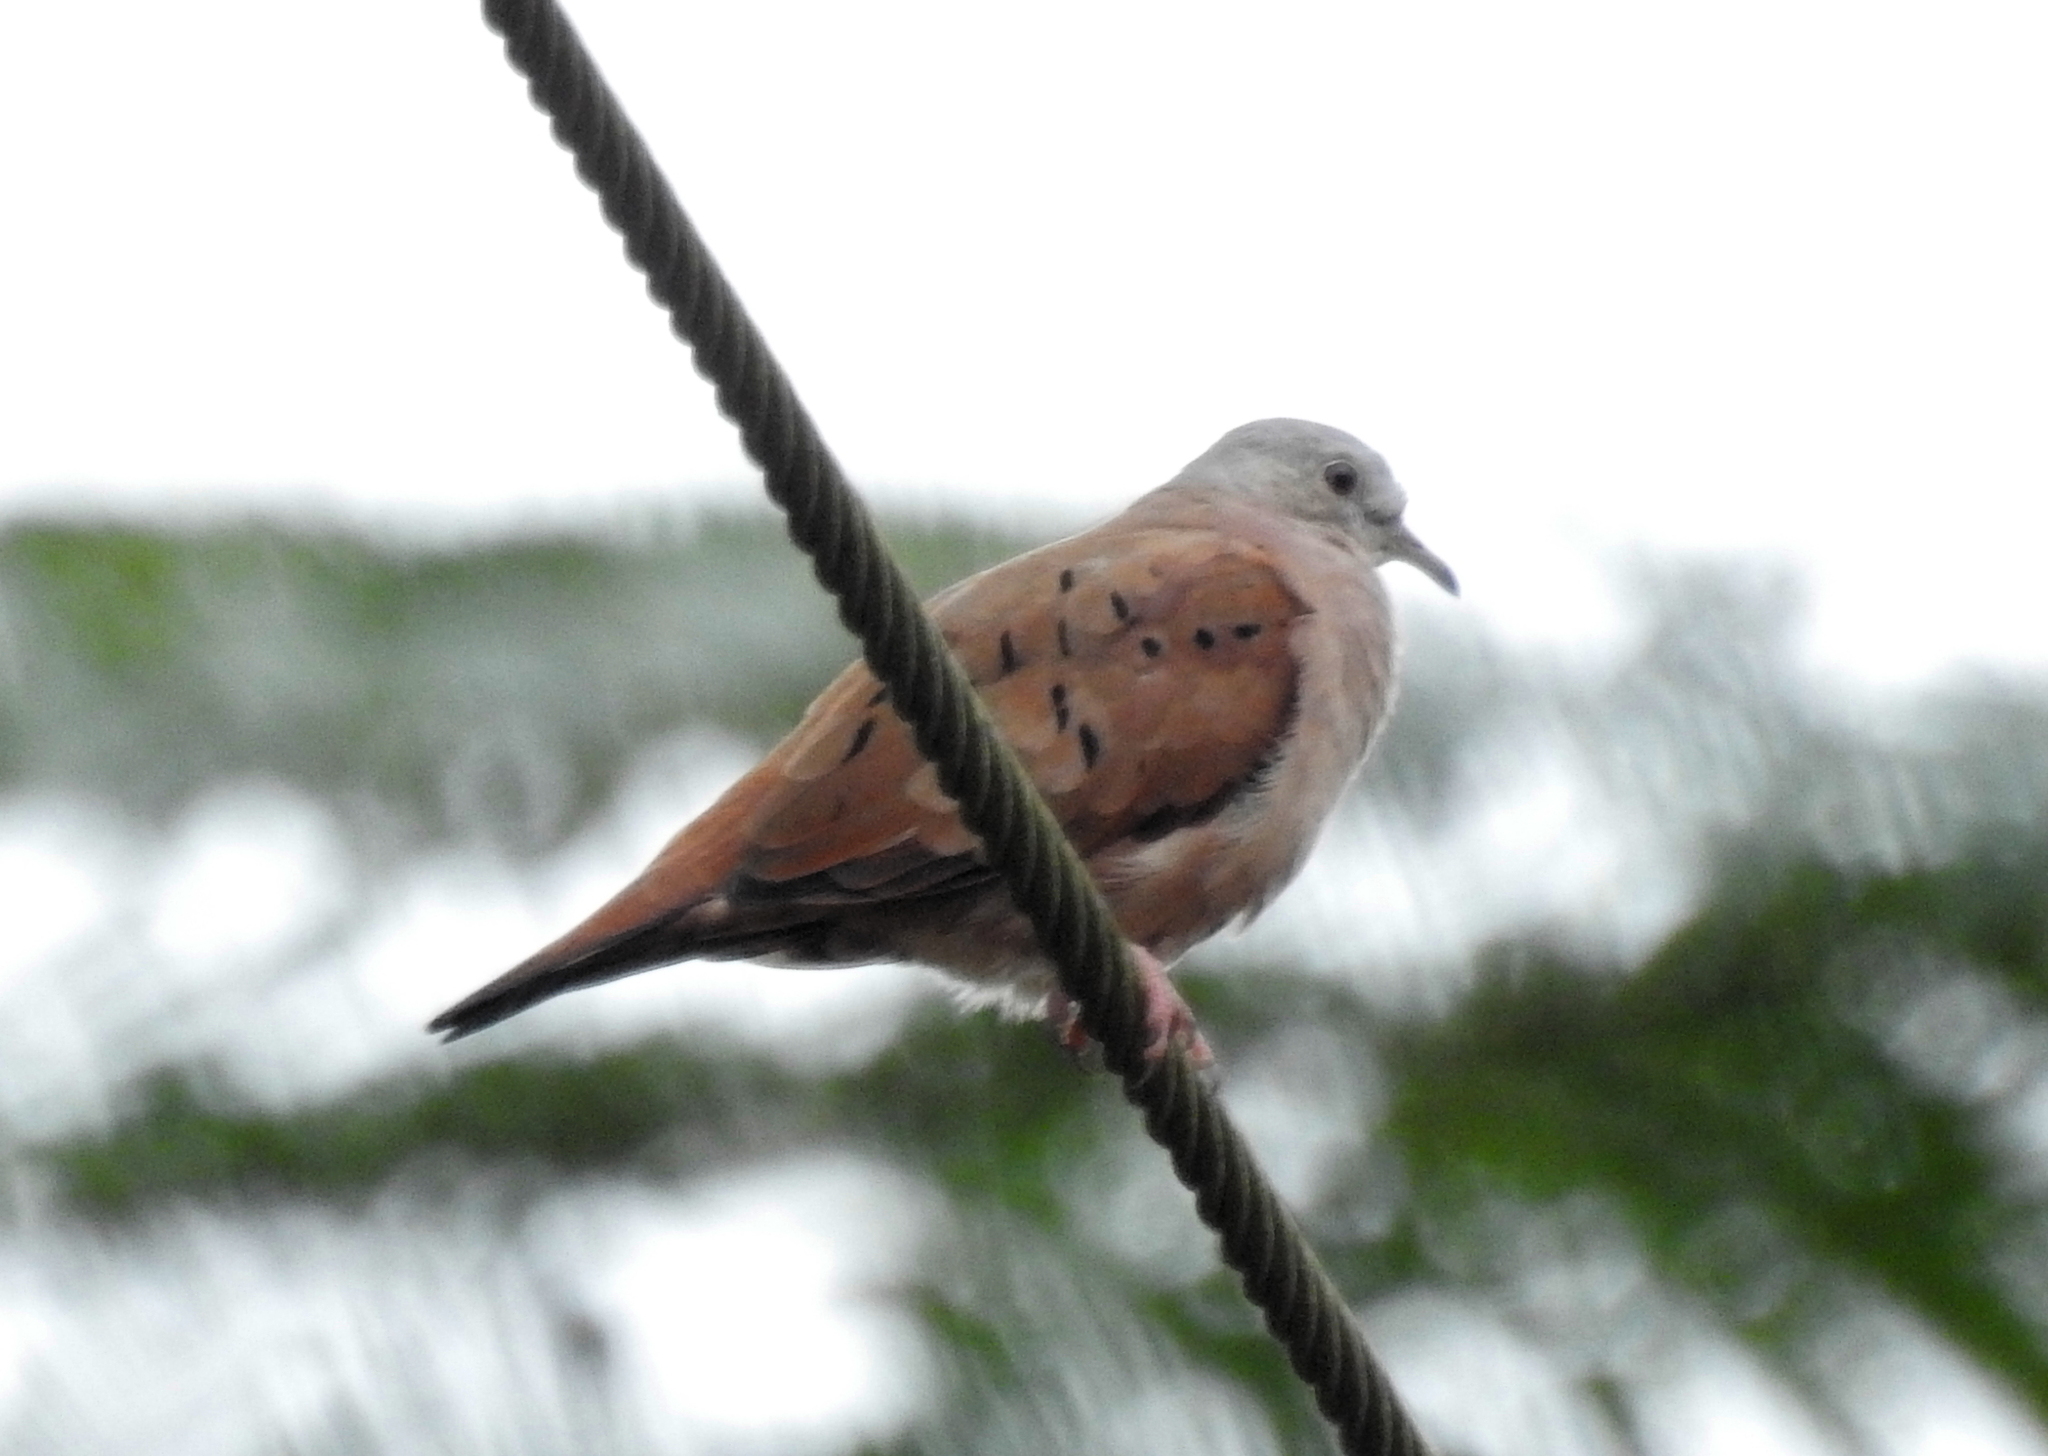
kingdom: Animalia
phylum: Chordata
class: Aves
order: Columbiformes
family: Columbidae
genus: Columbina
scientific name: Columbina talpacoti
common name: Ruddy ground dove
